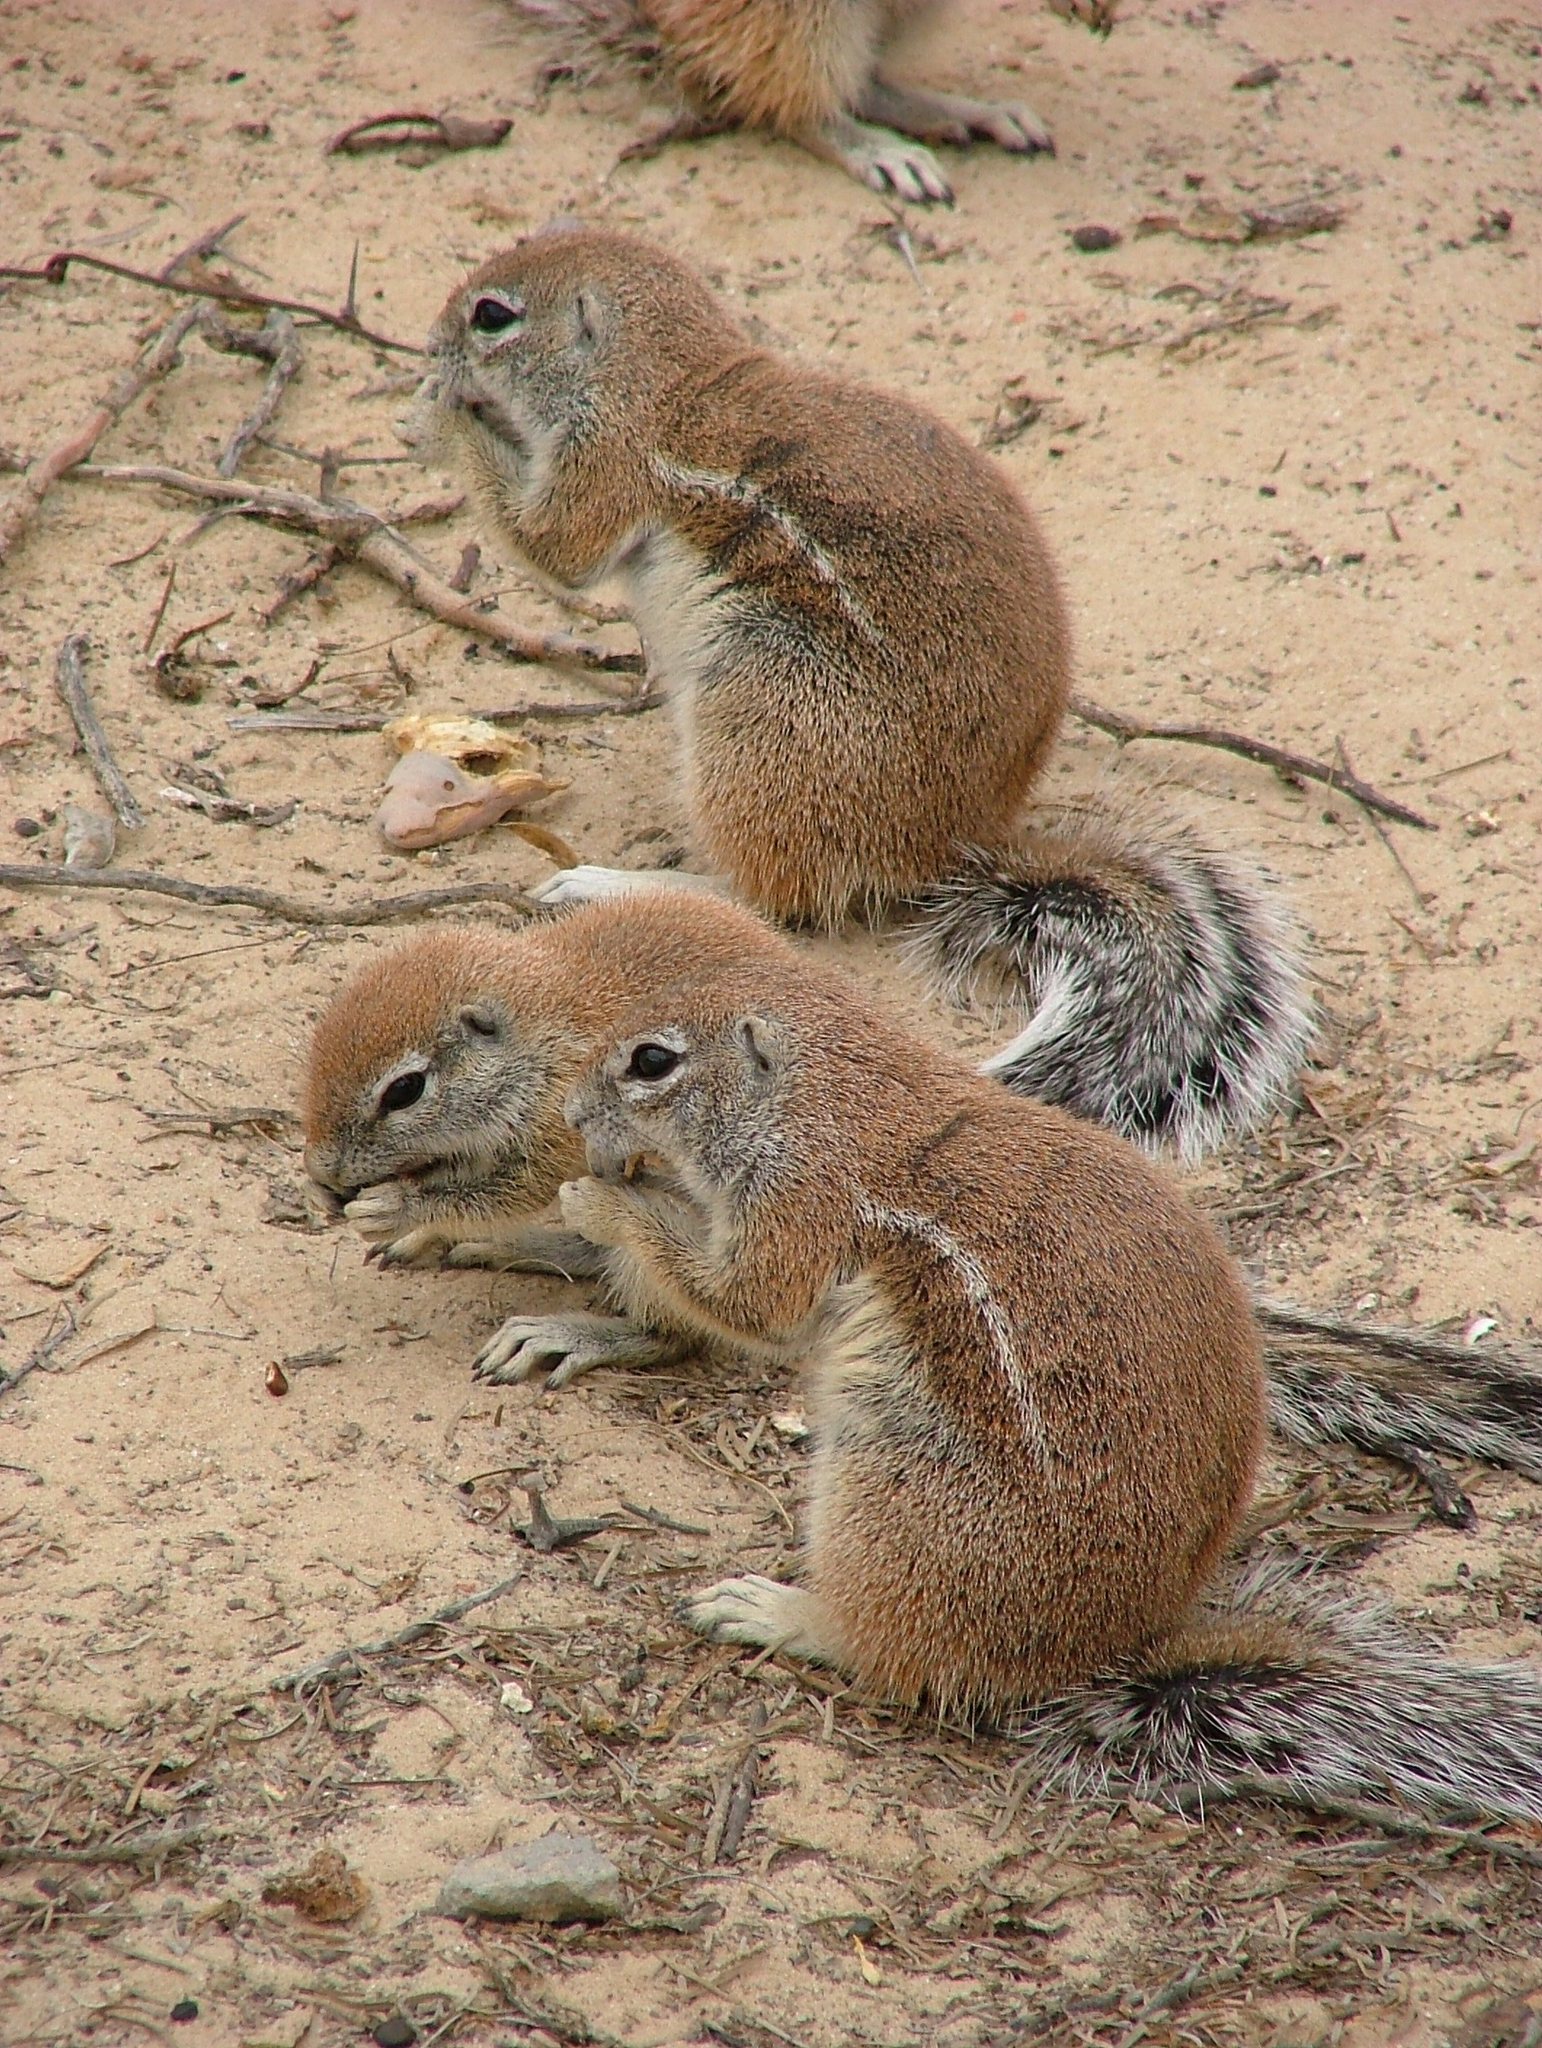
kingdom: Animalia
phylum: Chordata
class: Mammalia
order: Rodentia
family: Sciuridae
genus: Xerus
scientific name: Xerus inauris
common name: South african ground squirrel
